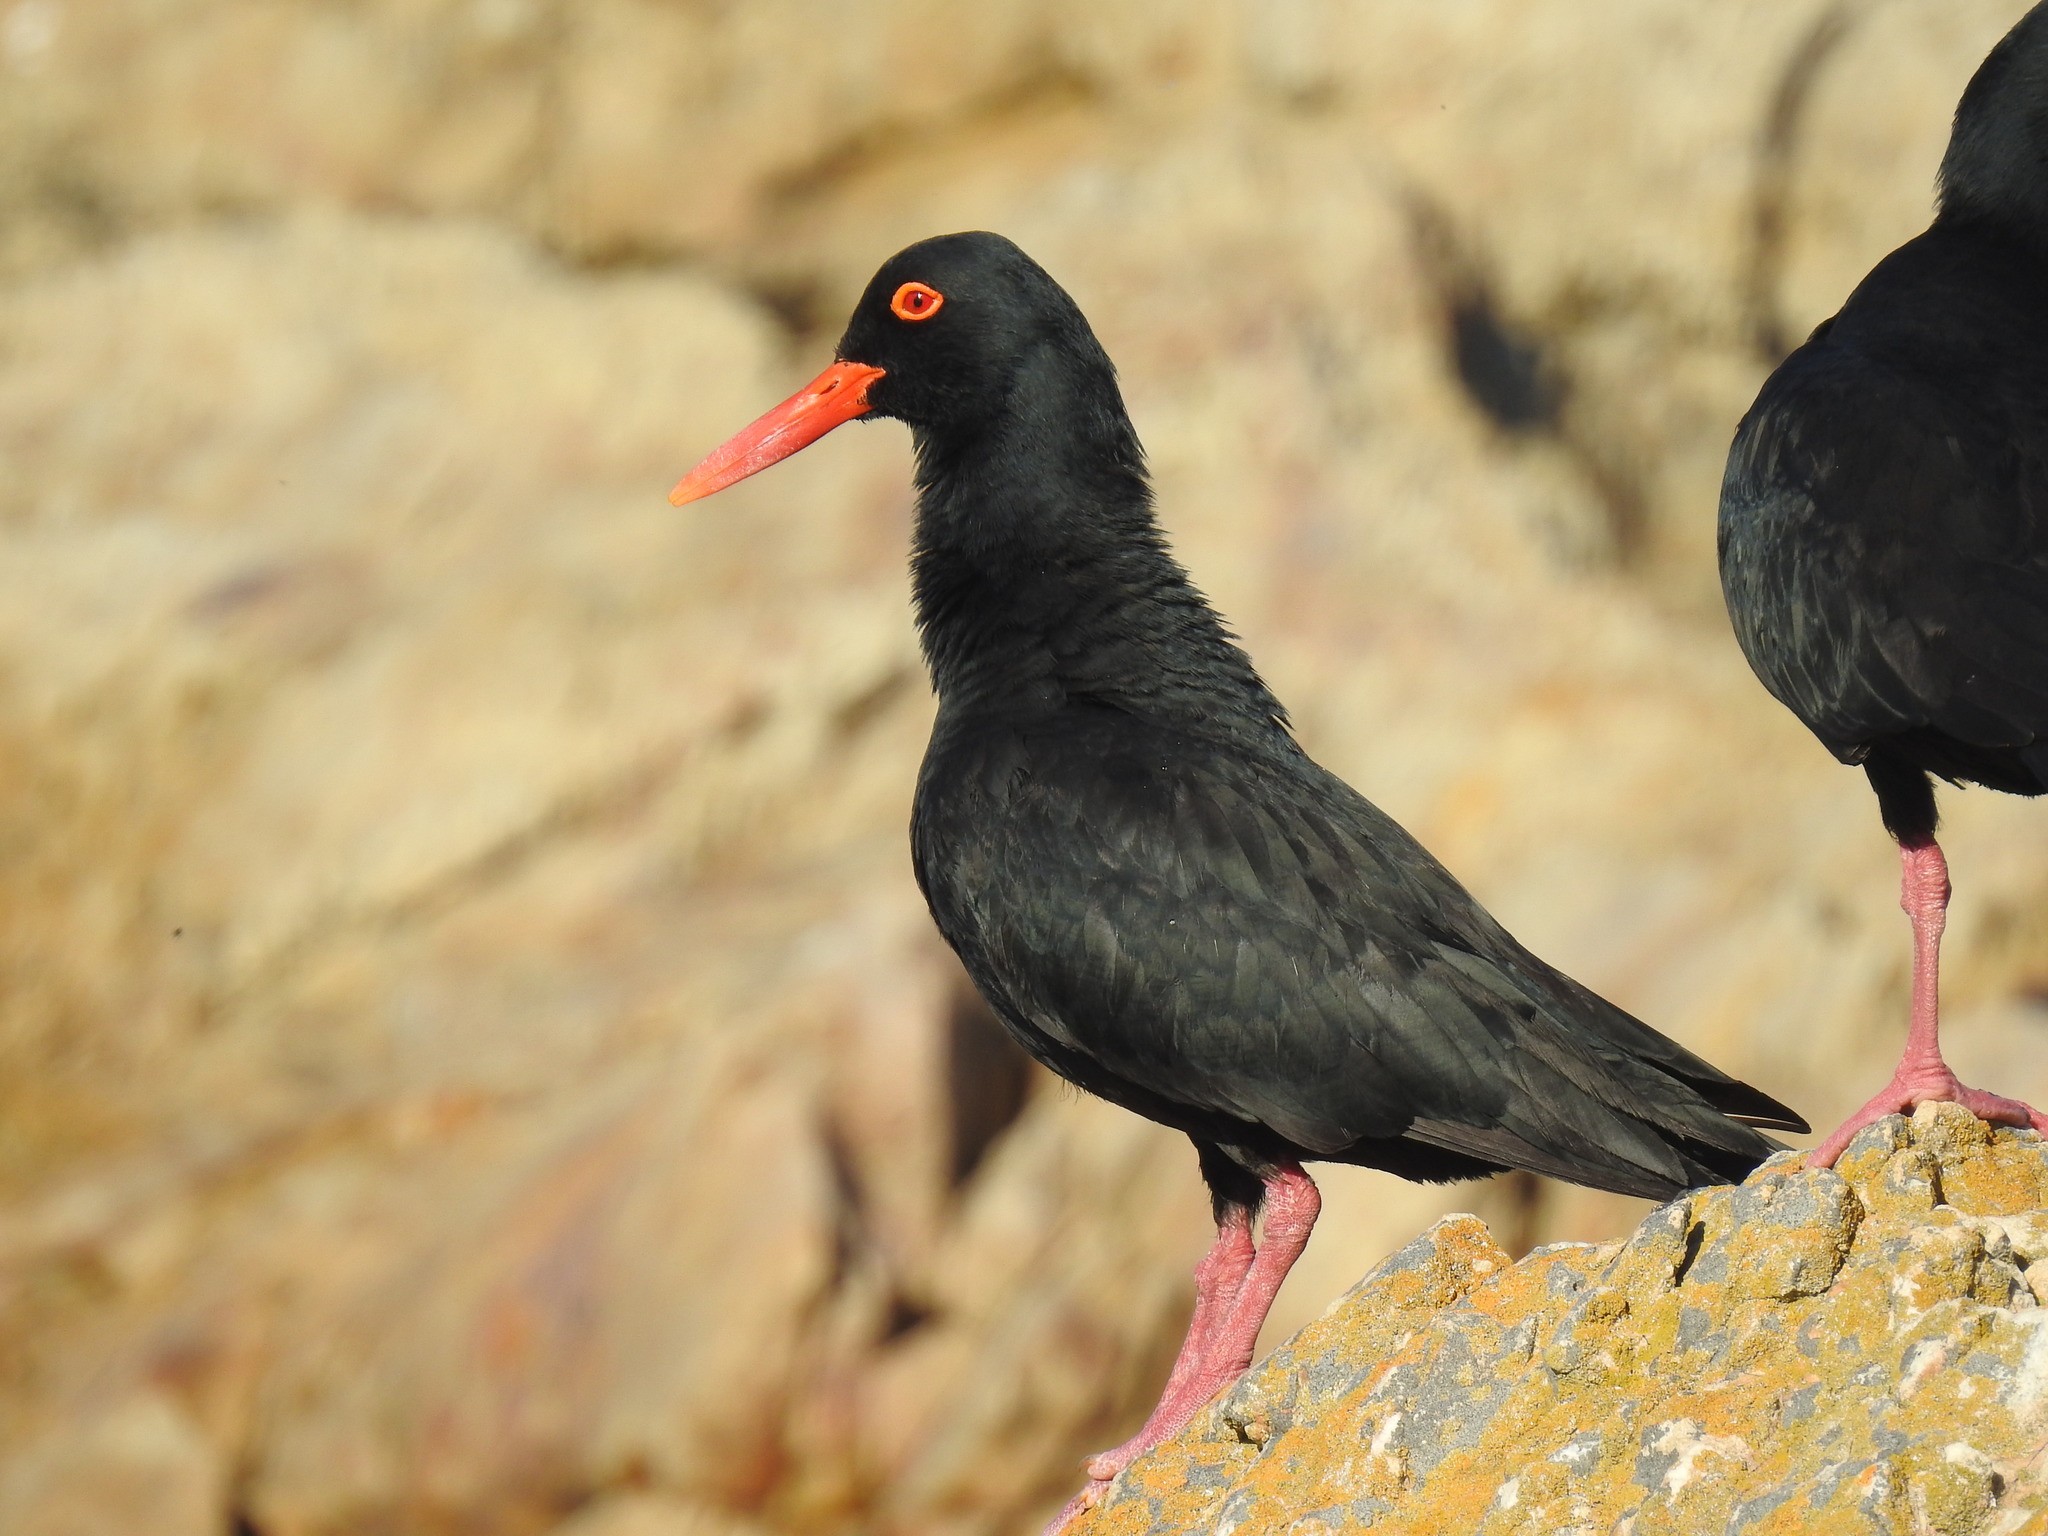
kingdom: Animalia
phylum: Chordata
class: Aves
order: Charadriiformes
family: Haematopodidae
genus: Haematopus
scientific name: Haematopus moquini
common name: African oystercatcher
